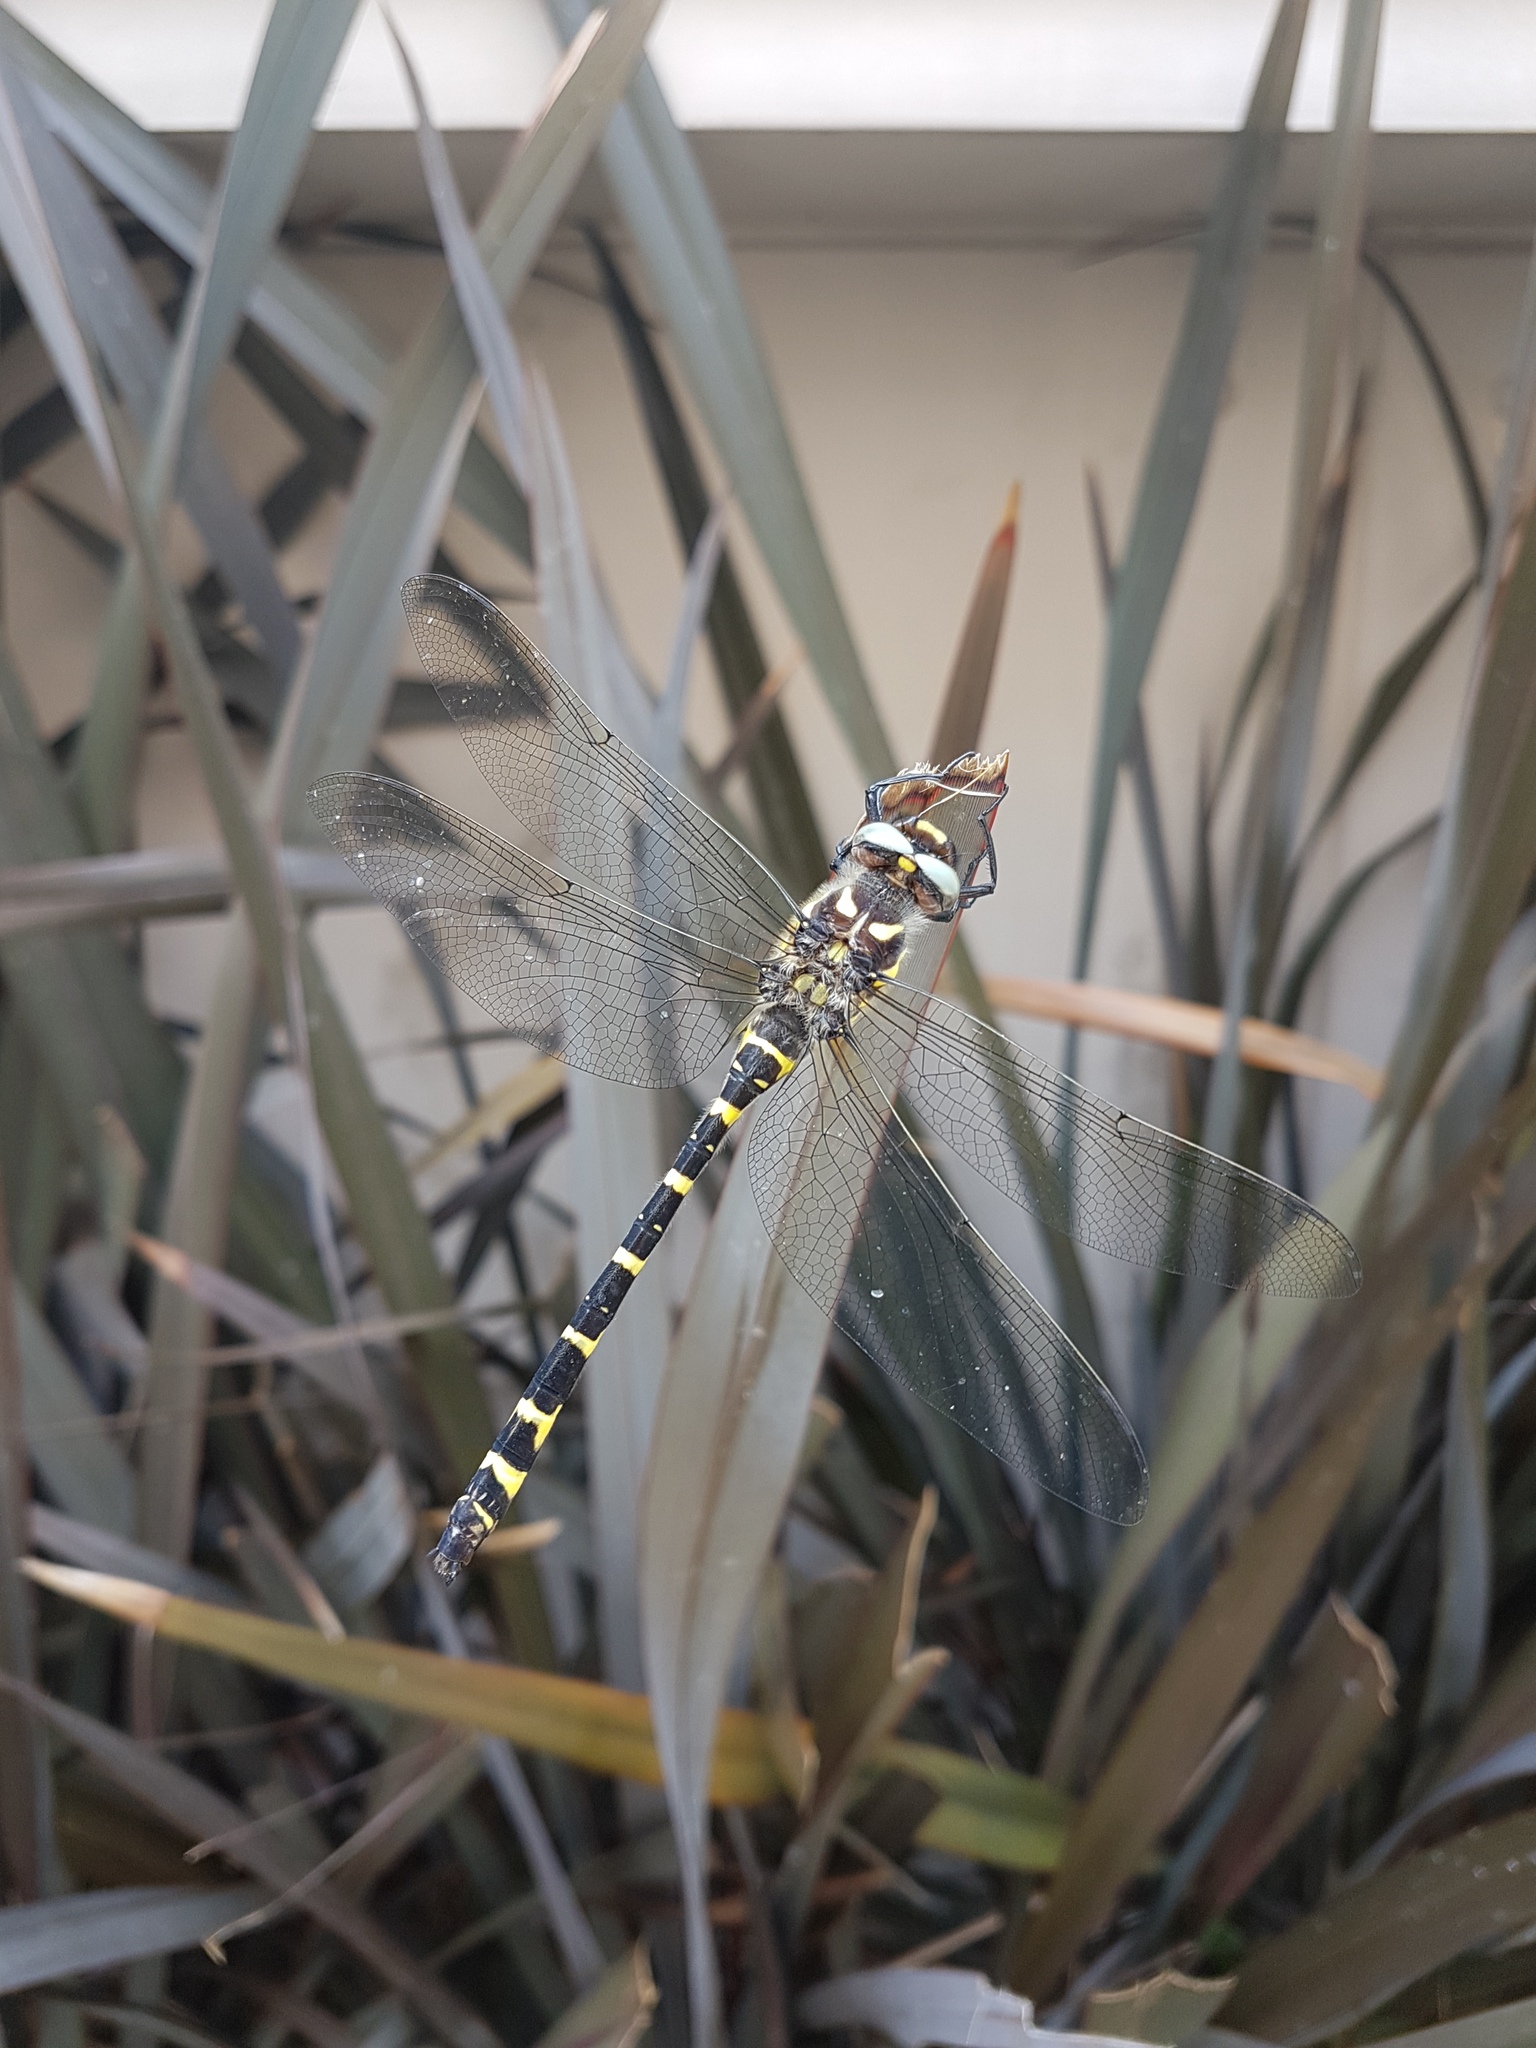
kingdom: Animalia
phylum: Arthropoda
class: Insecta
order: Odonata
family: Cordulegastridae
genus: Cordulegaster
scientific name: Cordulegaster diadema
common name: Apache spiketail
